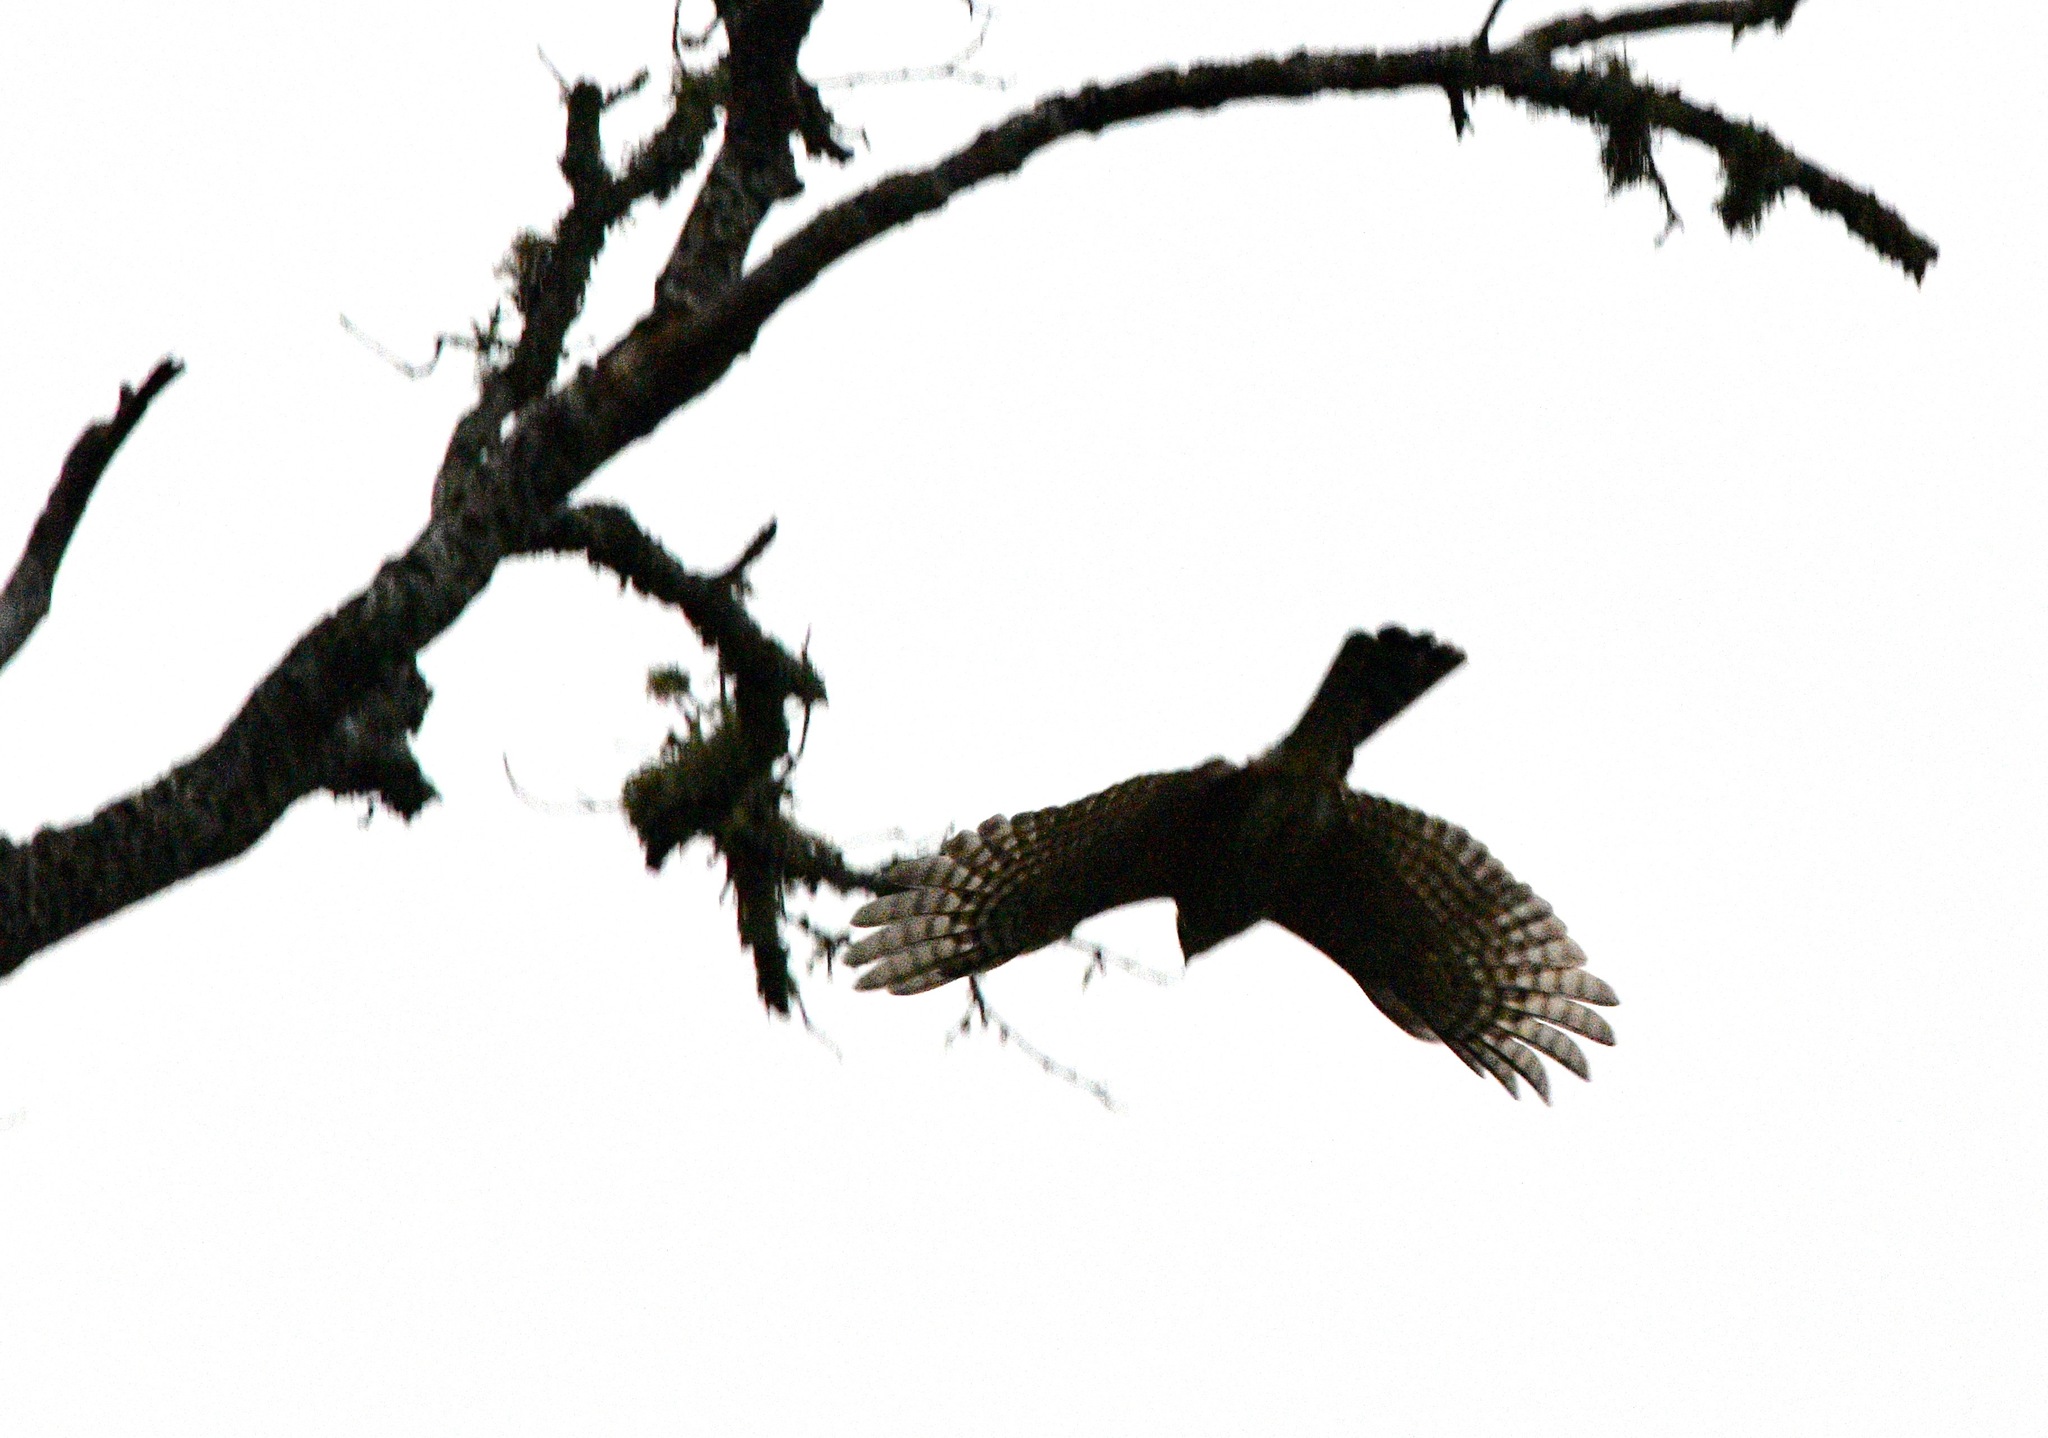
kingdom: Animalia
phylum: Chordata
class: Aves
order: Accipitriformes
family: Accipitridae
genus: Accipiter
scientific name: Accipiter striatus
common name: Sharp-shinned hawk
